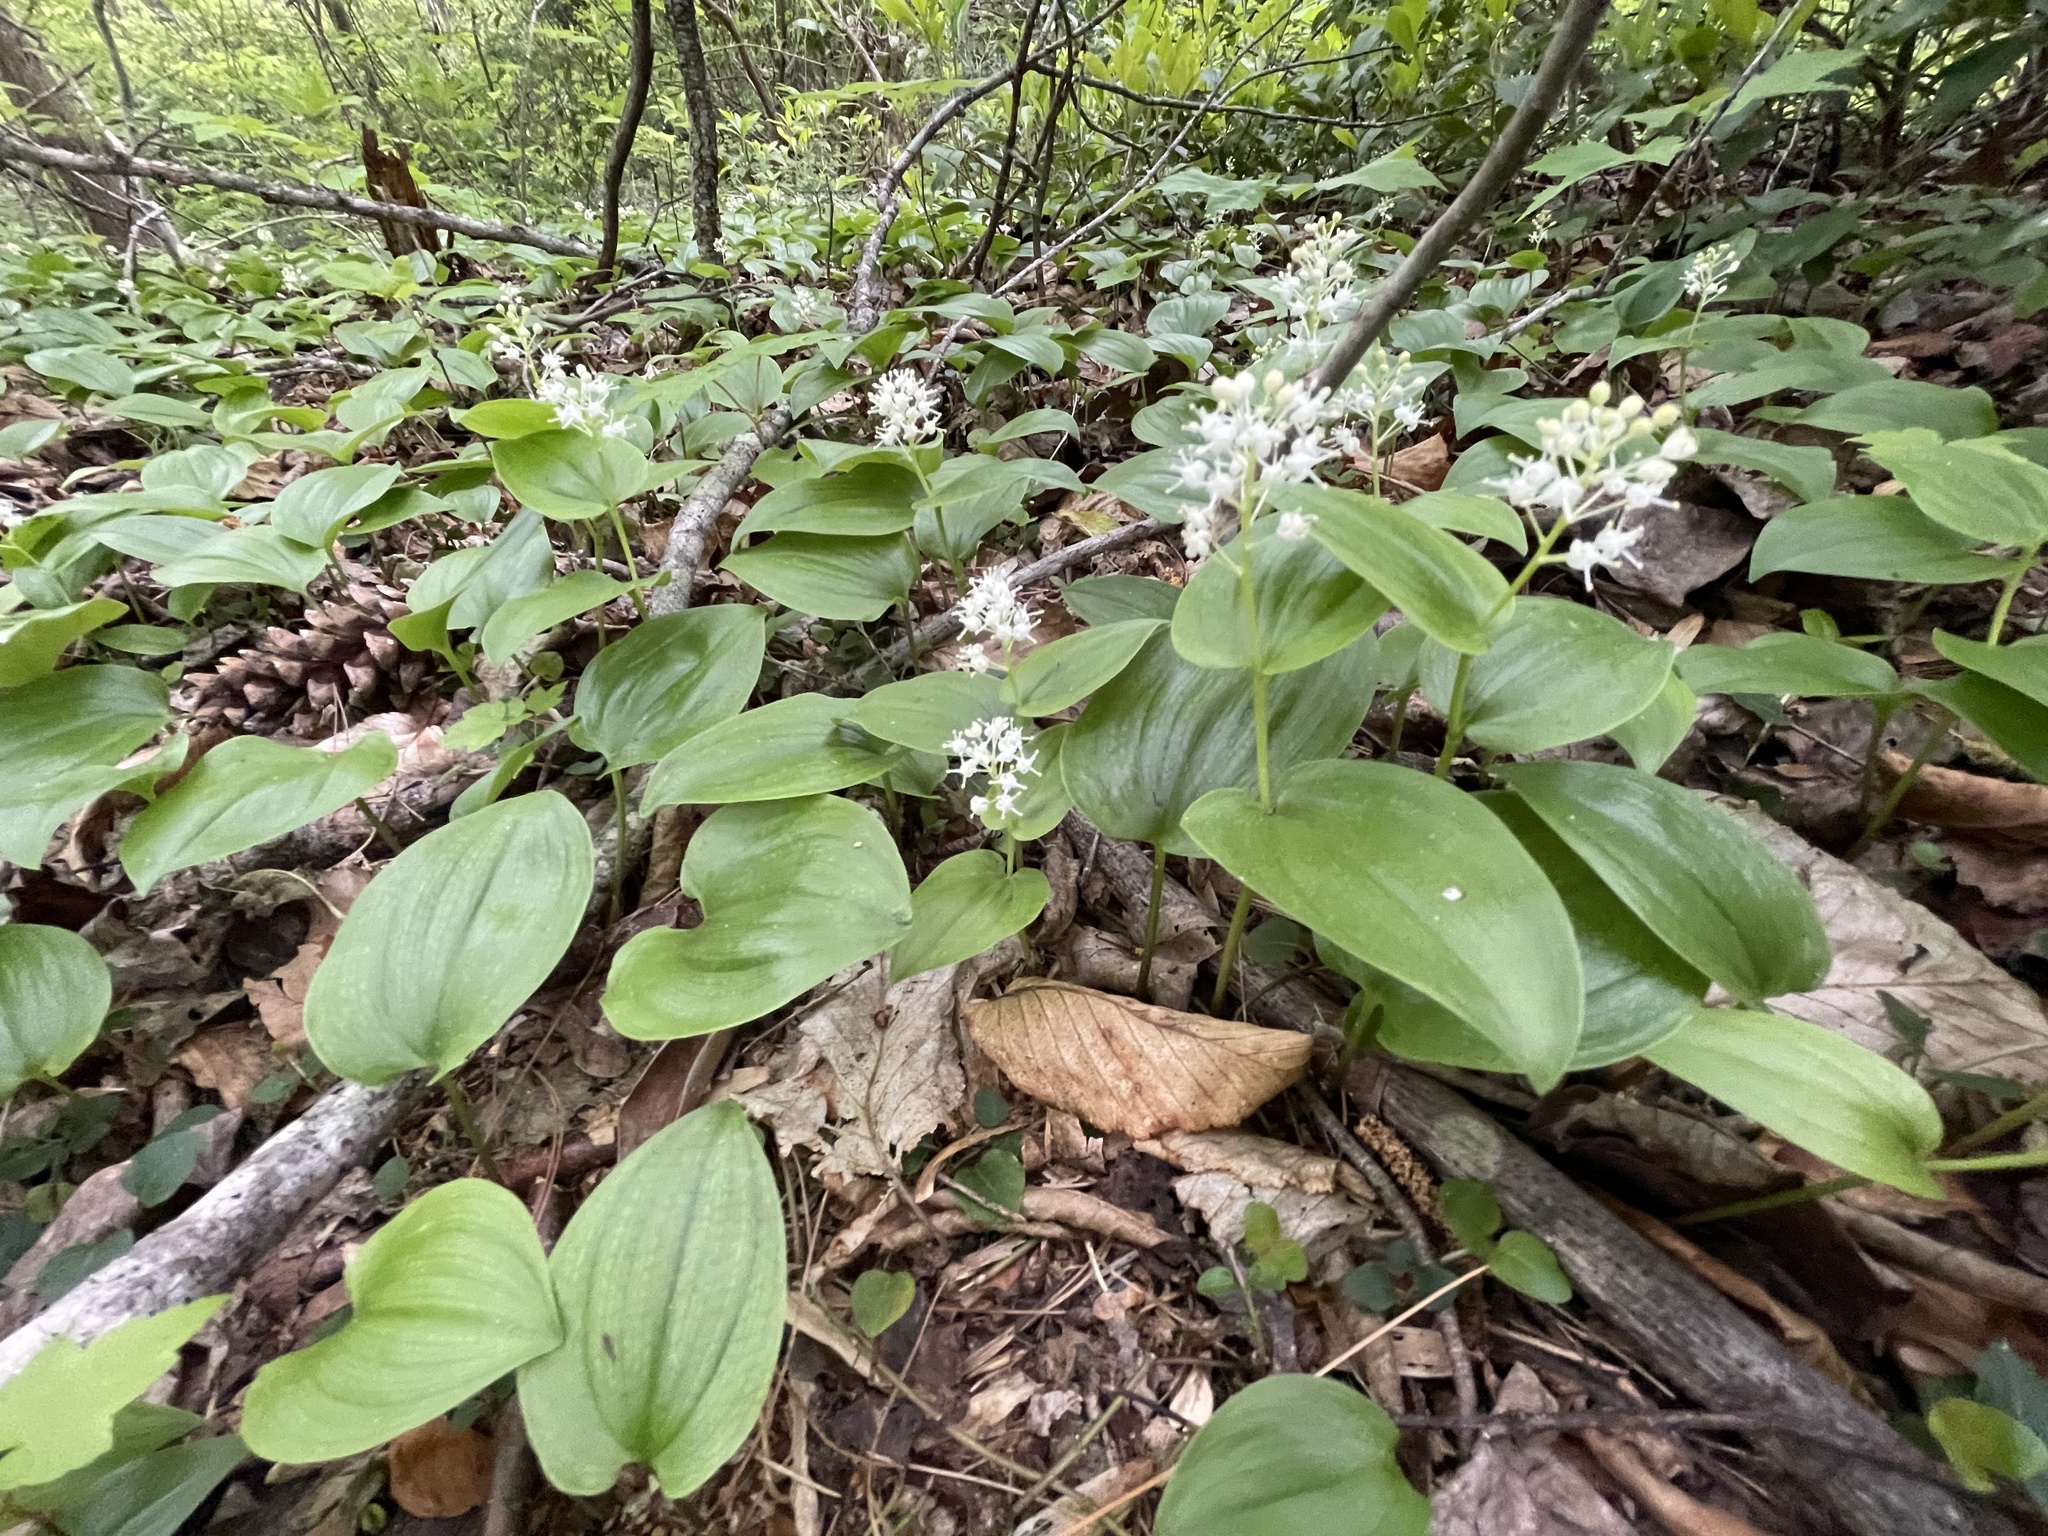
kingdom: Plantae
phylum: Tracheophyta
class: Liliopsida
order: Asparagales
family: Asparagaceae
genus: Maianthemum
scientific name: Maianthemum canadense
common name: False lily-of-the-valley
